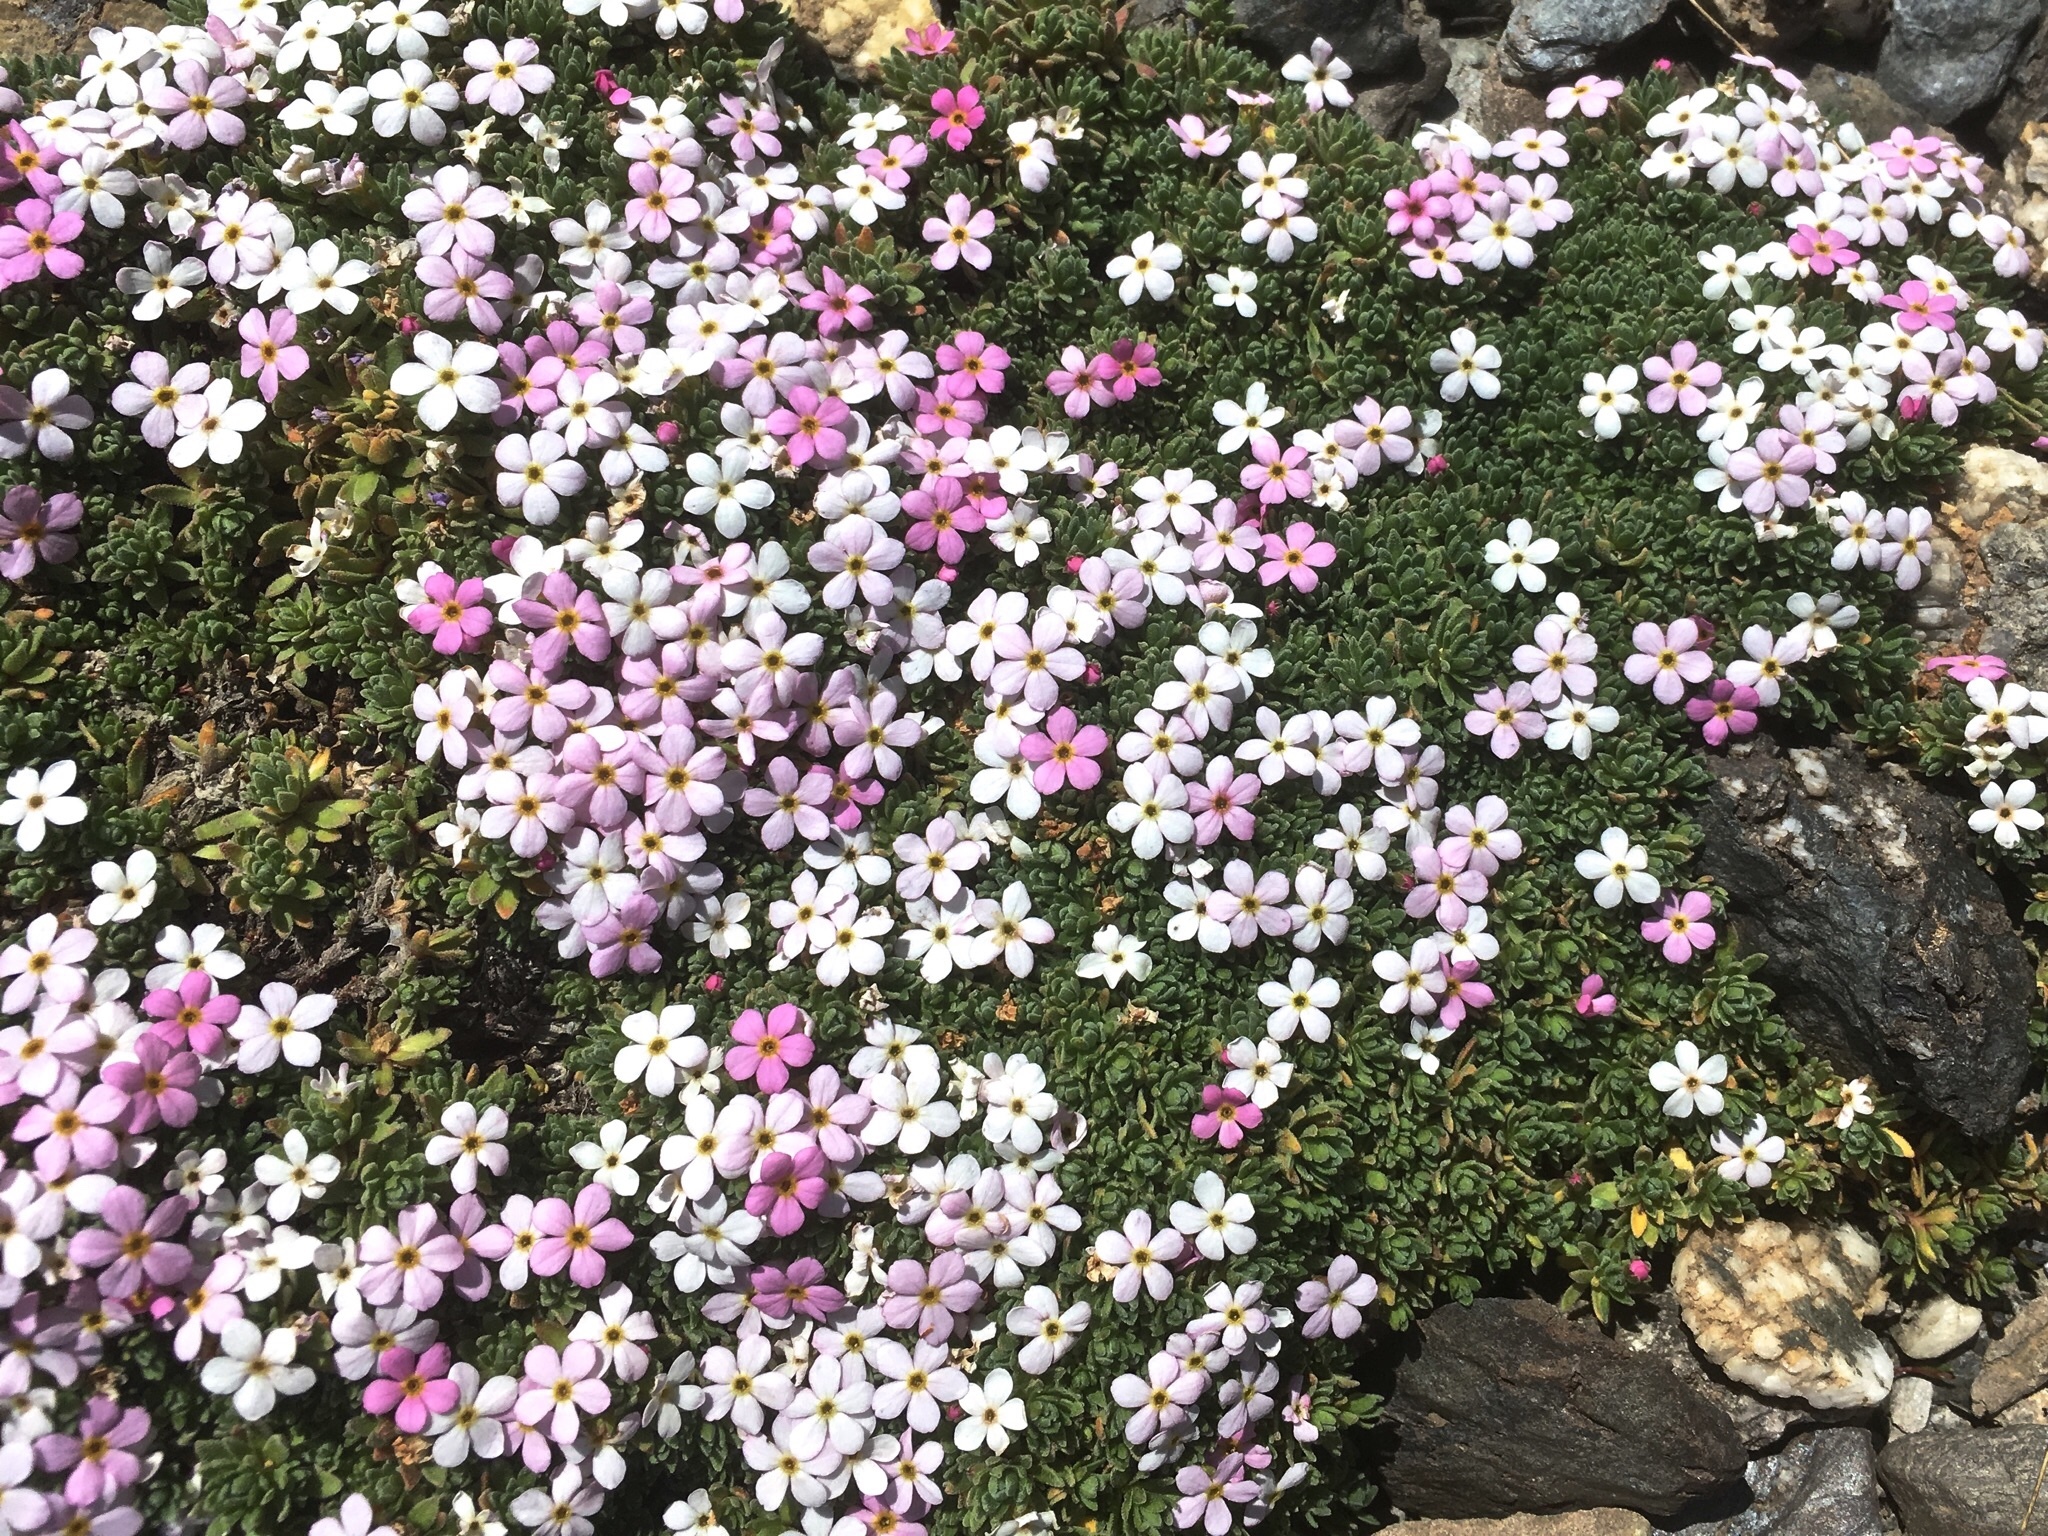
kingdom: Plantae
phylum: Tracheophyta
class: Magnoliopsida
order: Ericales
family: Primulaceae
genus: Androsace
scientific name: Androsace alpina
